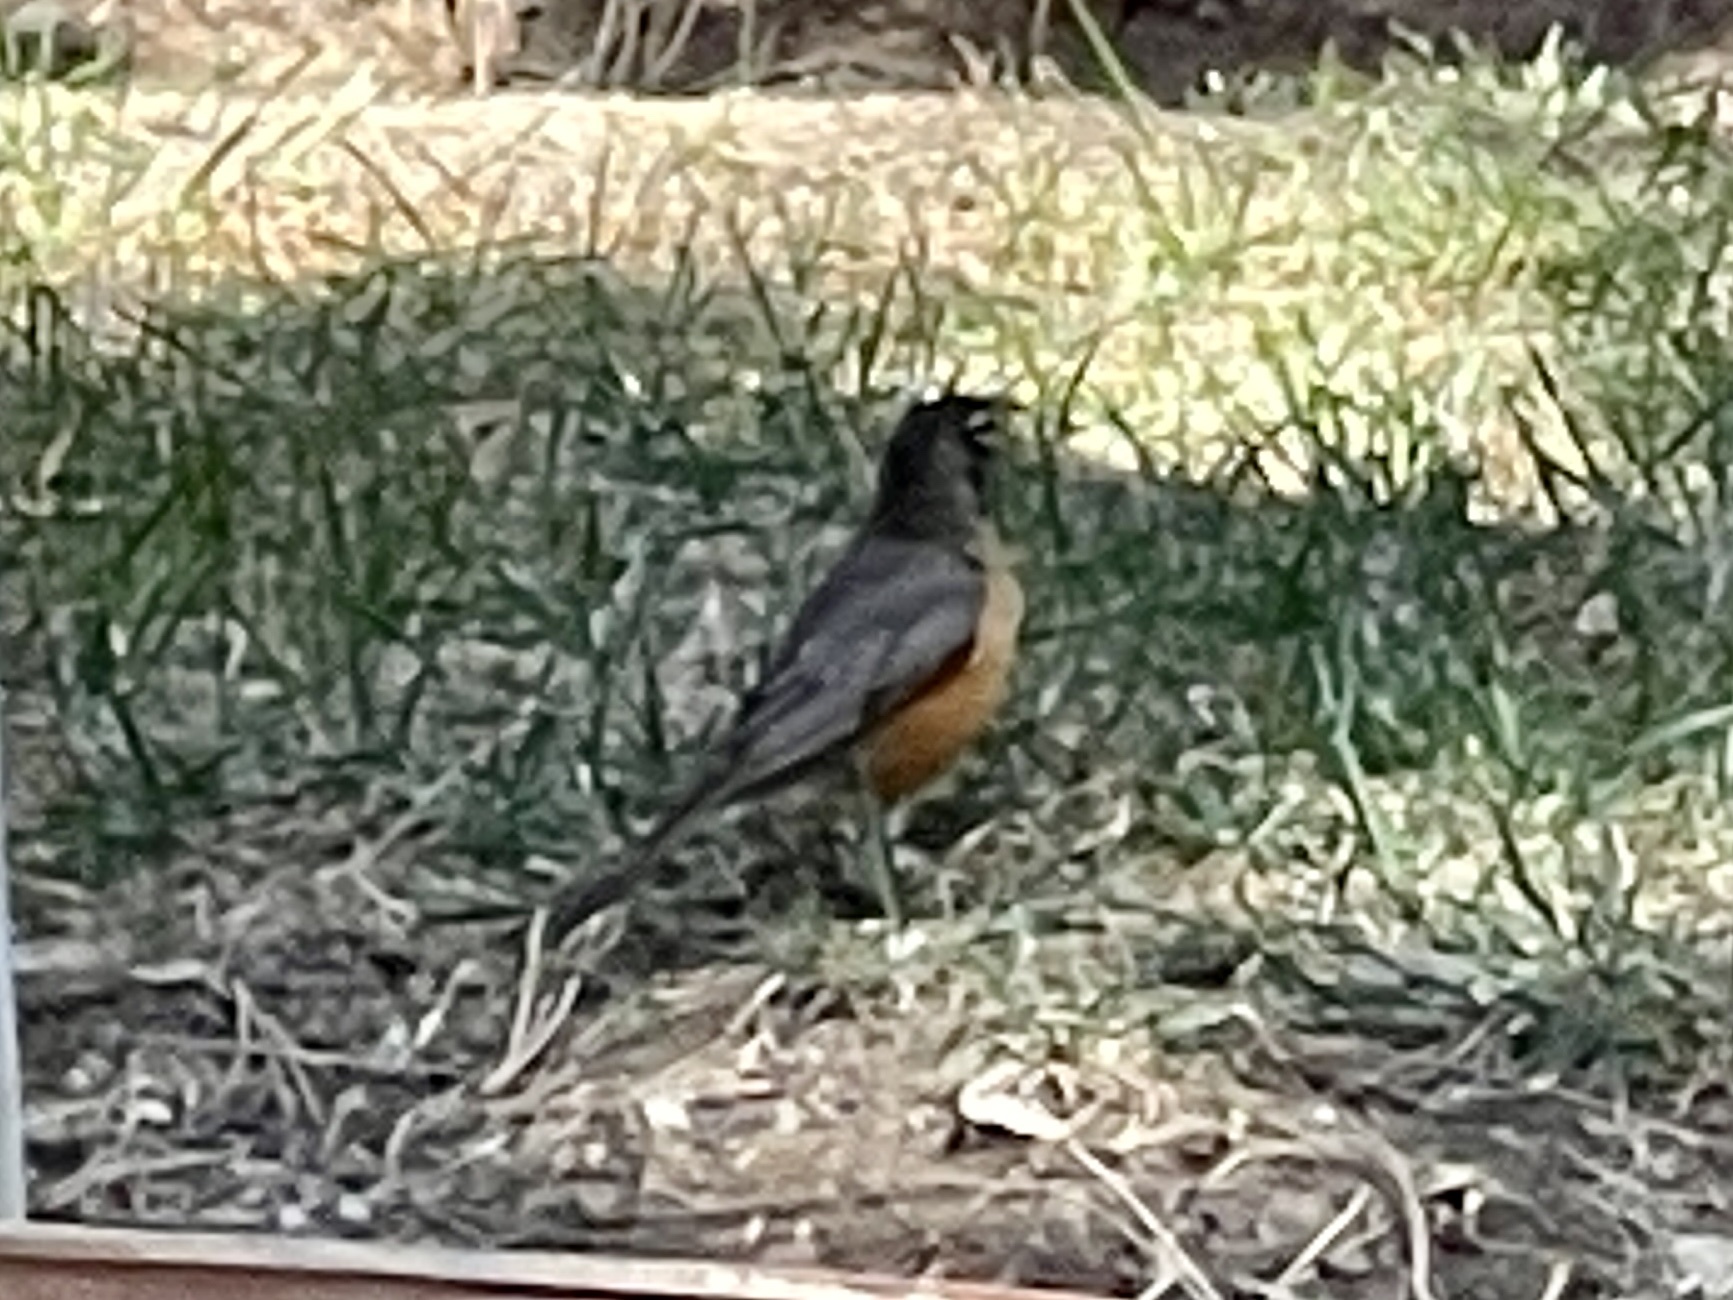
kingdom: Animalia
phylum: Chordata
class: Aves
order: Passeriformes
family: Turdidae
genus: Turdus
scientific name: Turdus migratorius
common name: American robin
